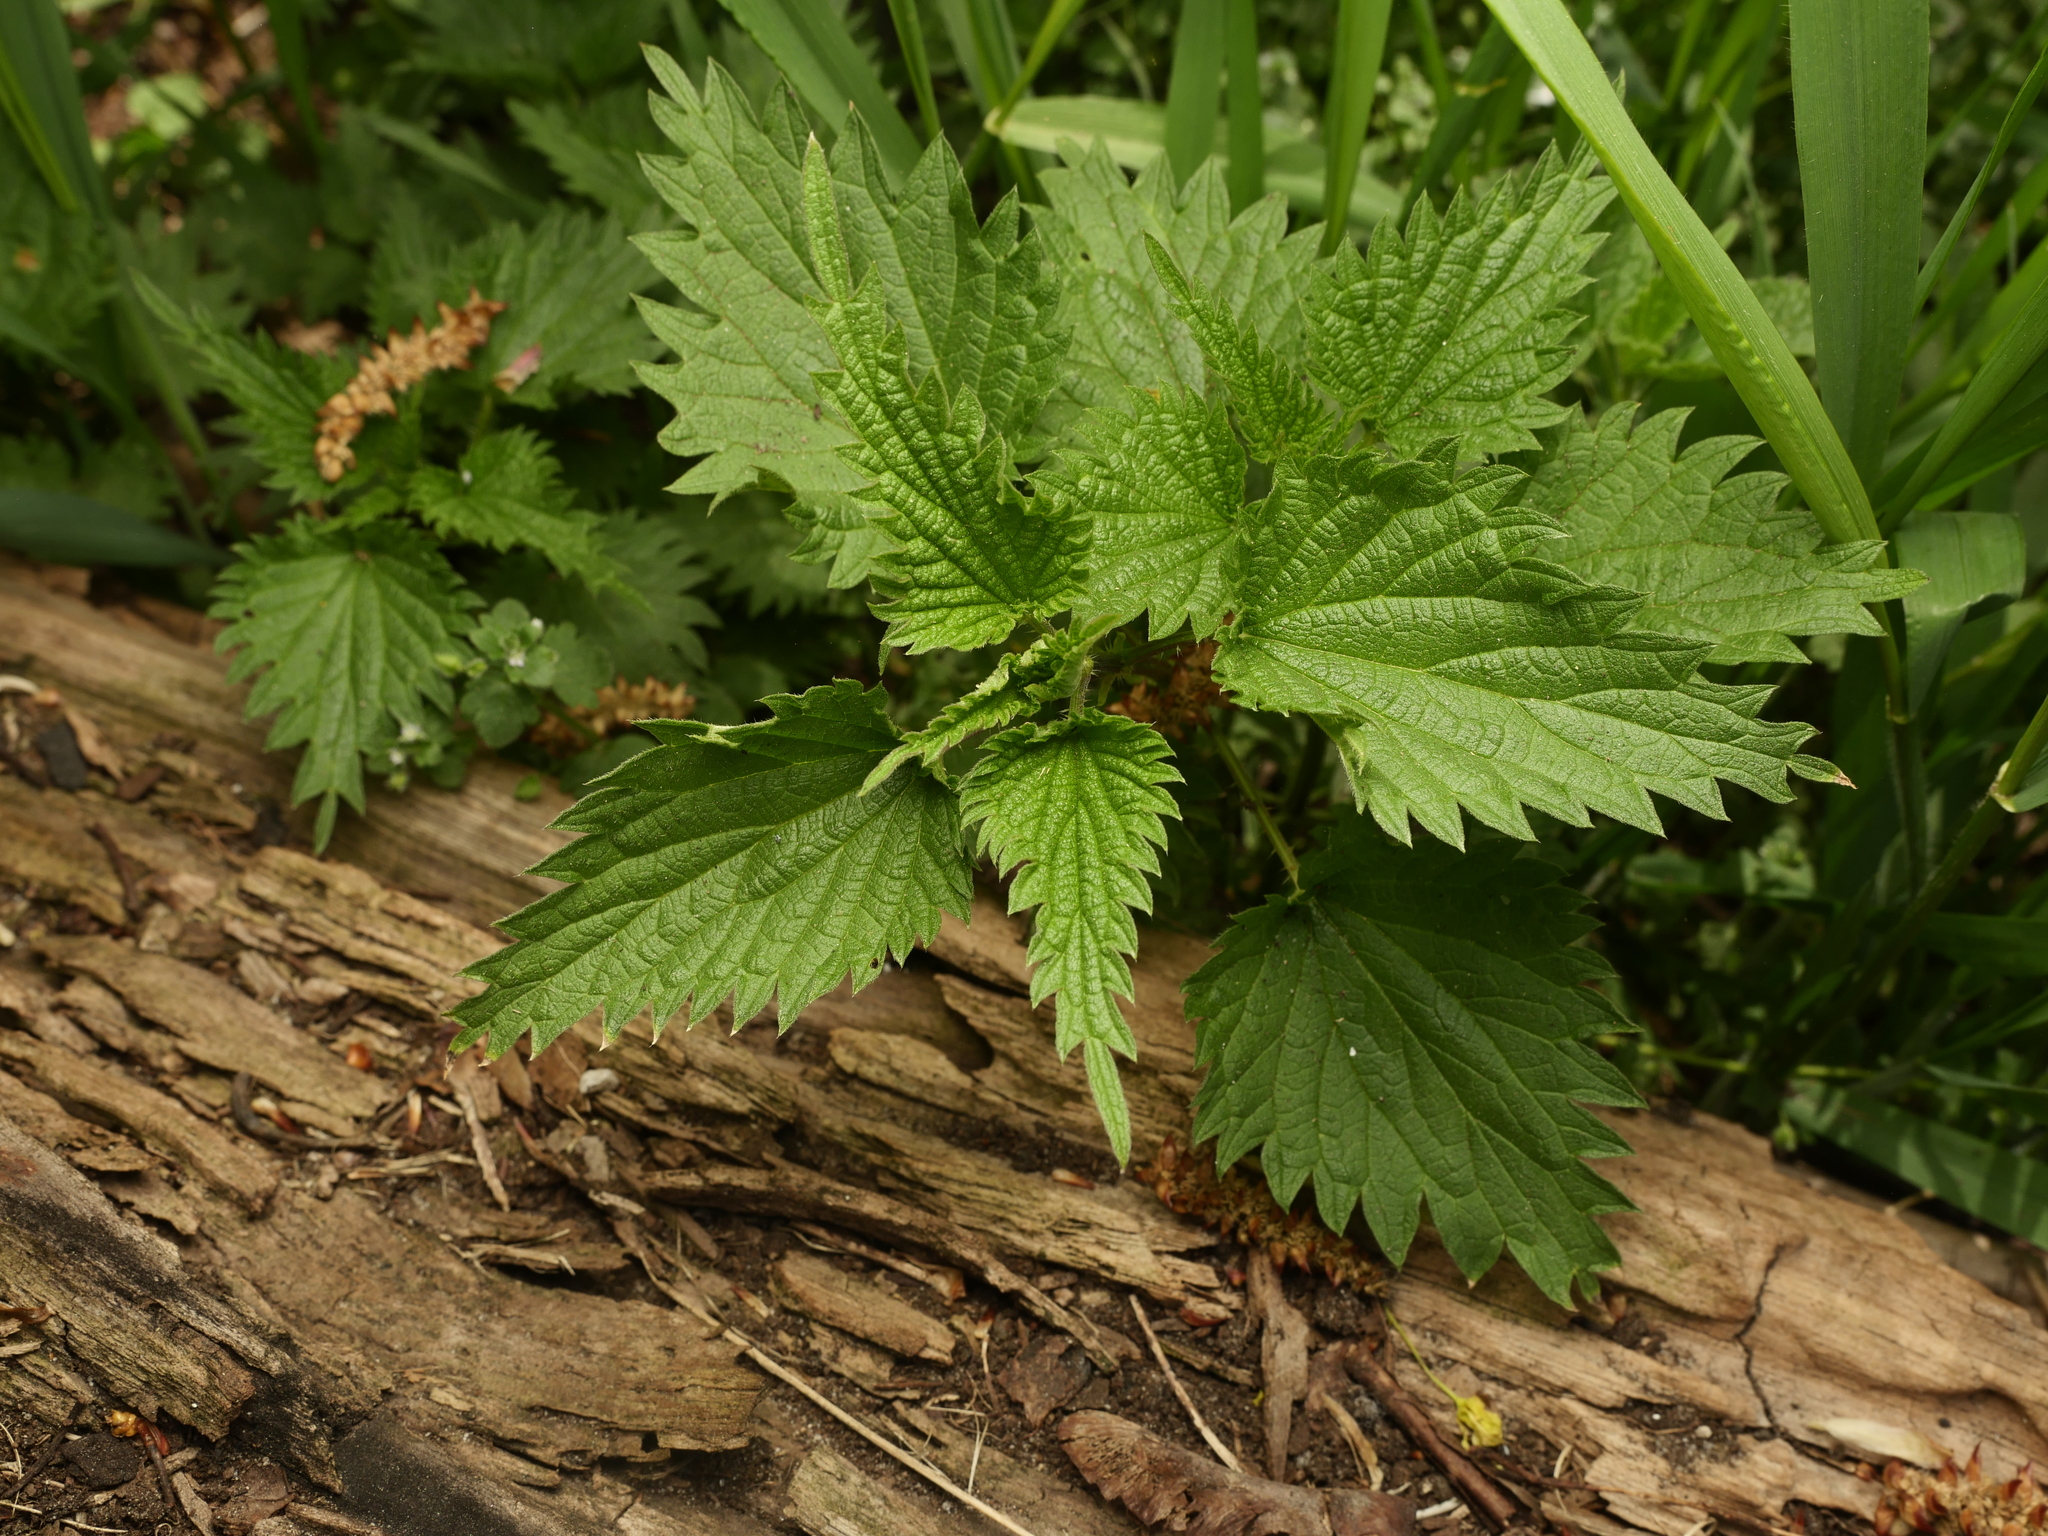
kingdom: Plantae
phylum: Tracheophyta
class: Magnoliopsida
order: Rosales
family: Urticaceae
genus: Urtica
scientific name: Urtica dioica
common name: Common nettle
